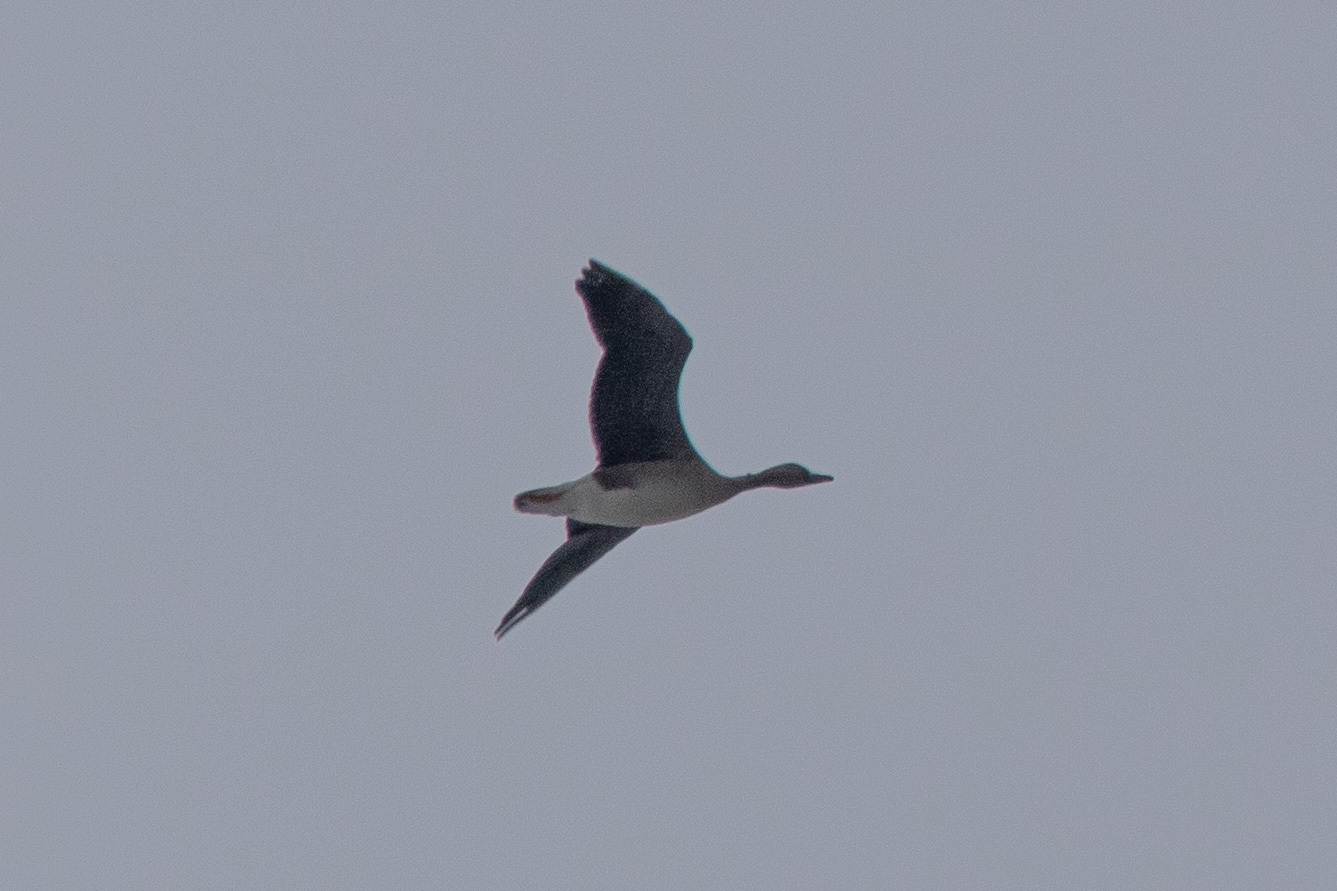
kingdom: Animalia
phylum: Chordata
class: Aves
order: Anseriformes
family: Anatidae
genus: Anser
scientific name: Anser fabalis
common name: Bean goose
